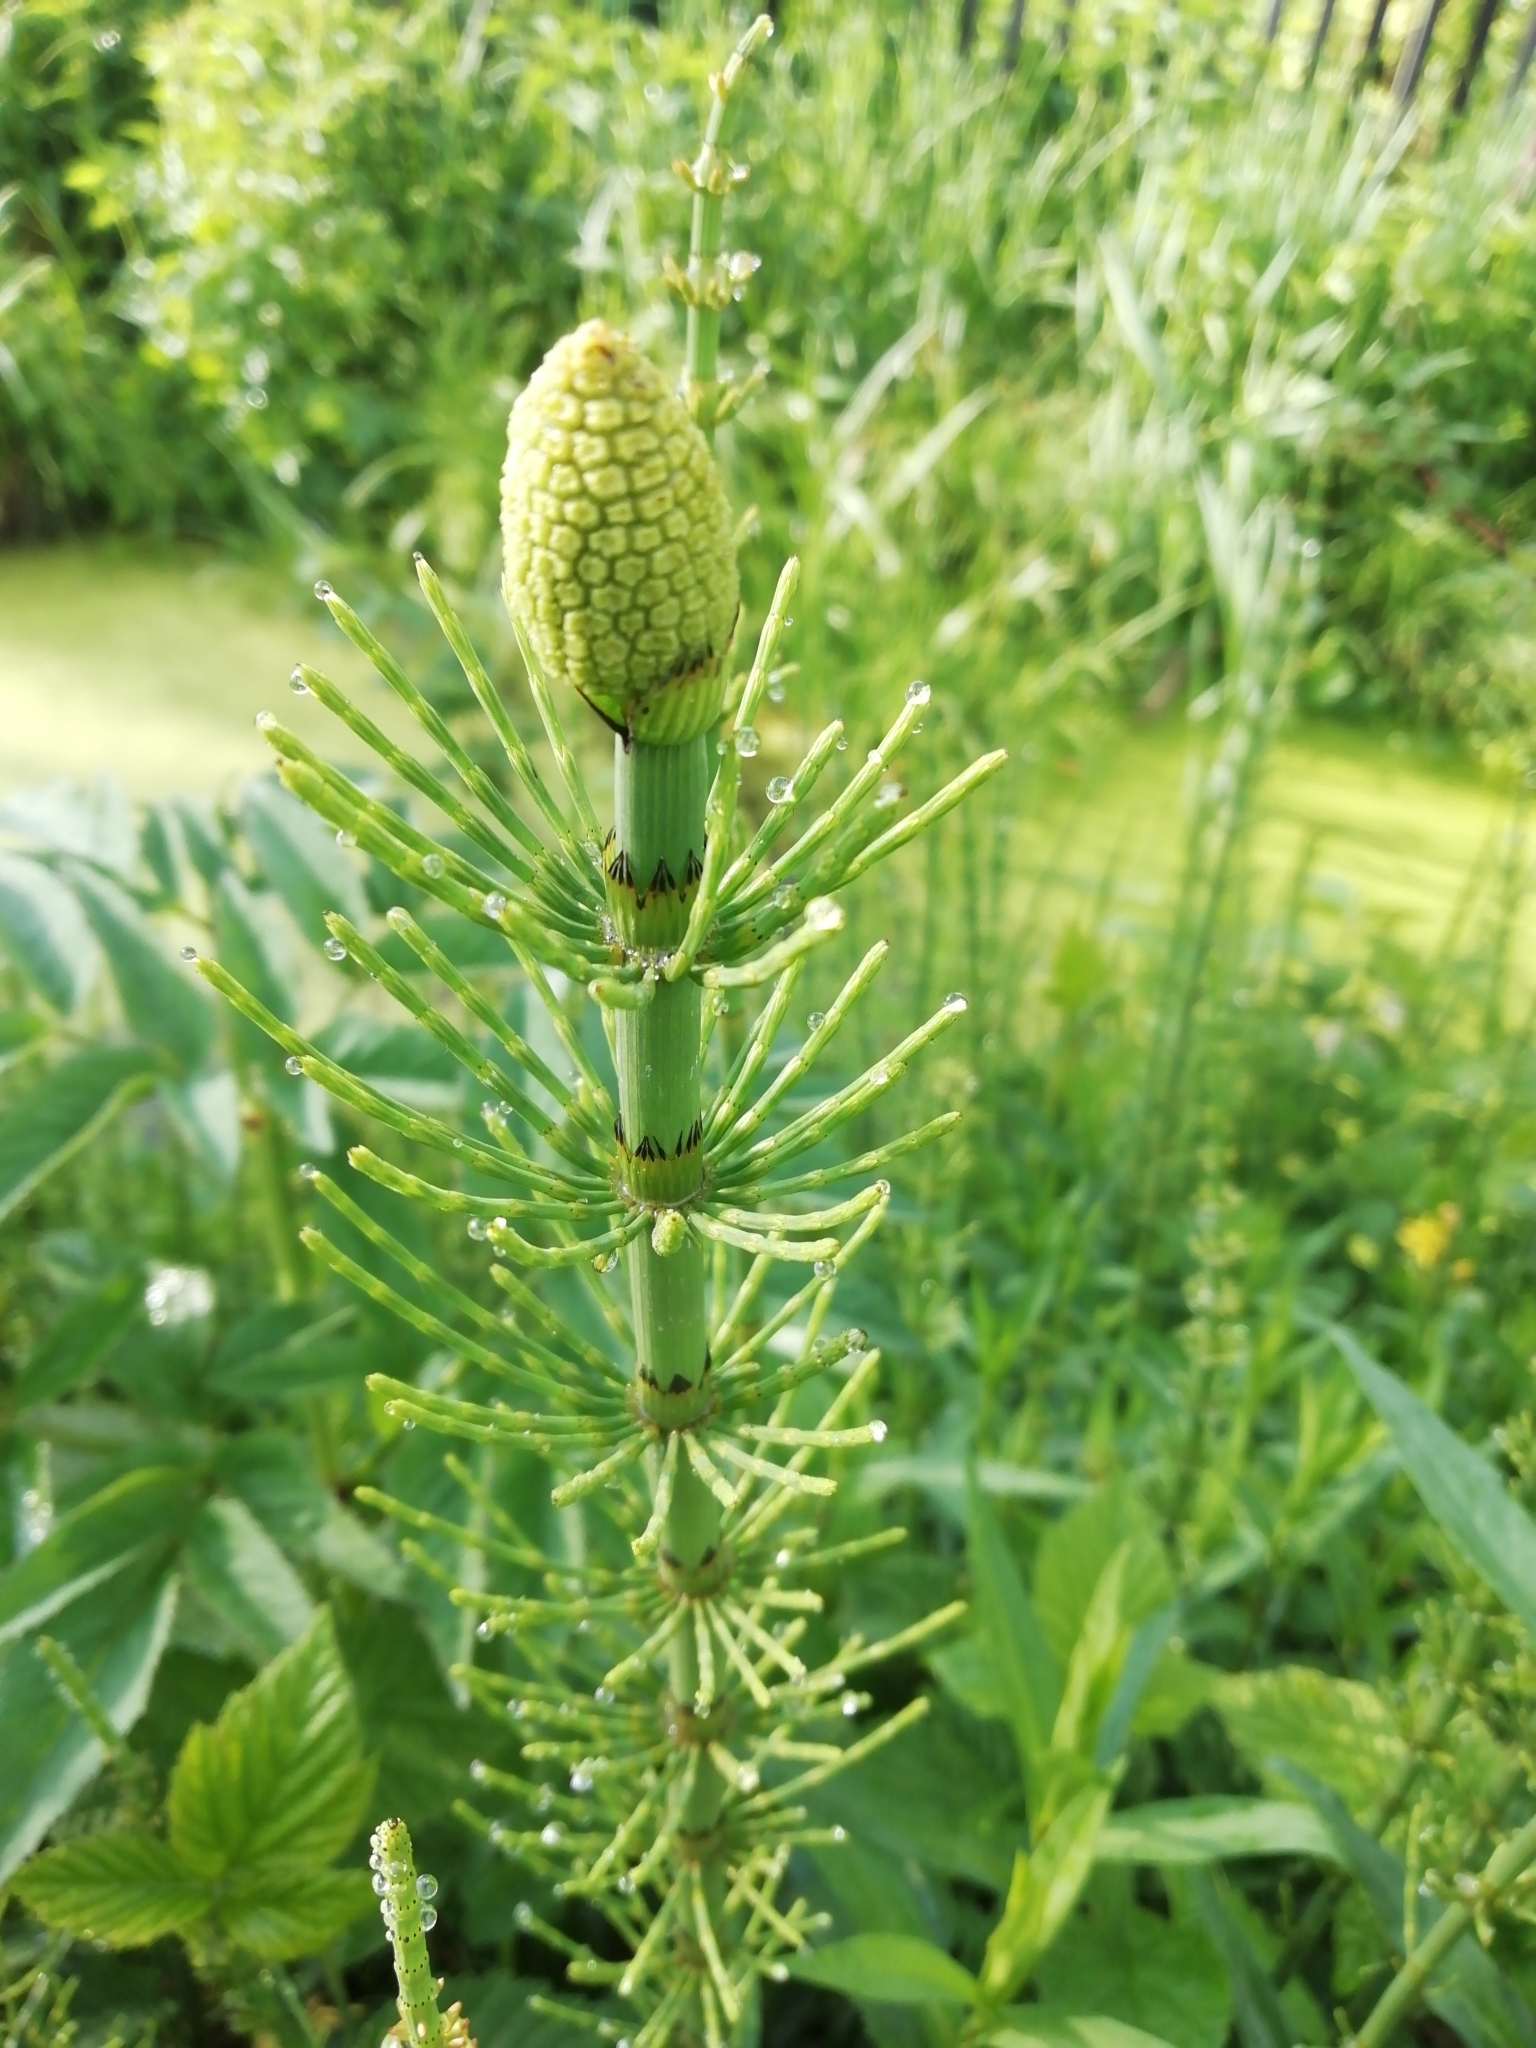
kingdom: Plantae
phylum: Tracheophyta
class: Polypodiopsida
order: Equisetales
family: Equisetaceae
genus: Equisetum
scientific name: Equisetum fluviatile
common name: Water horsetail
